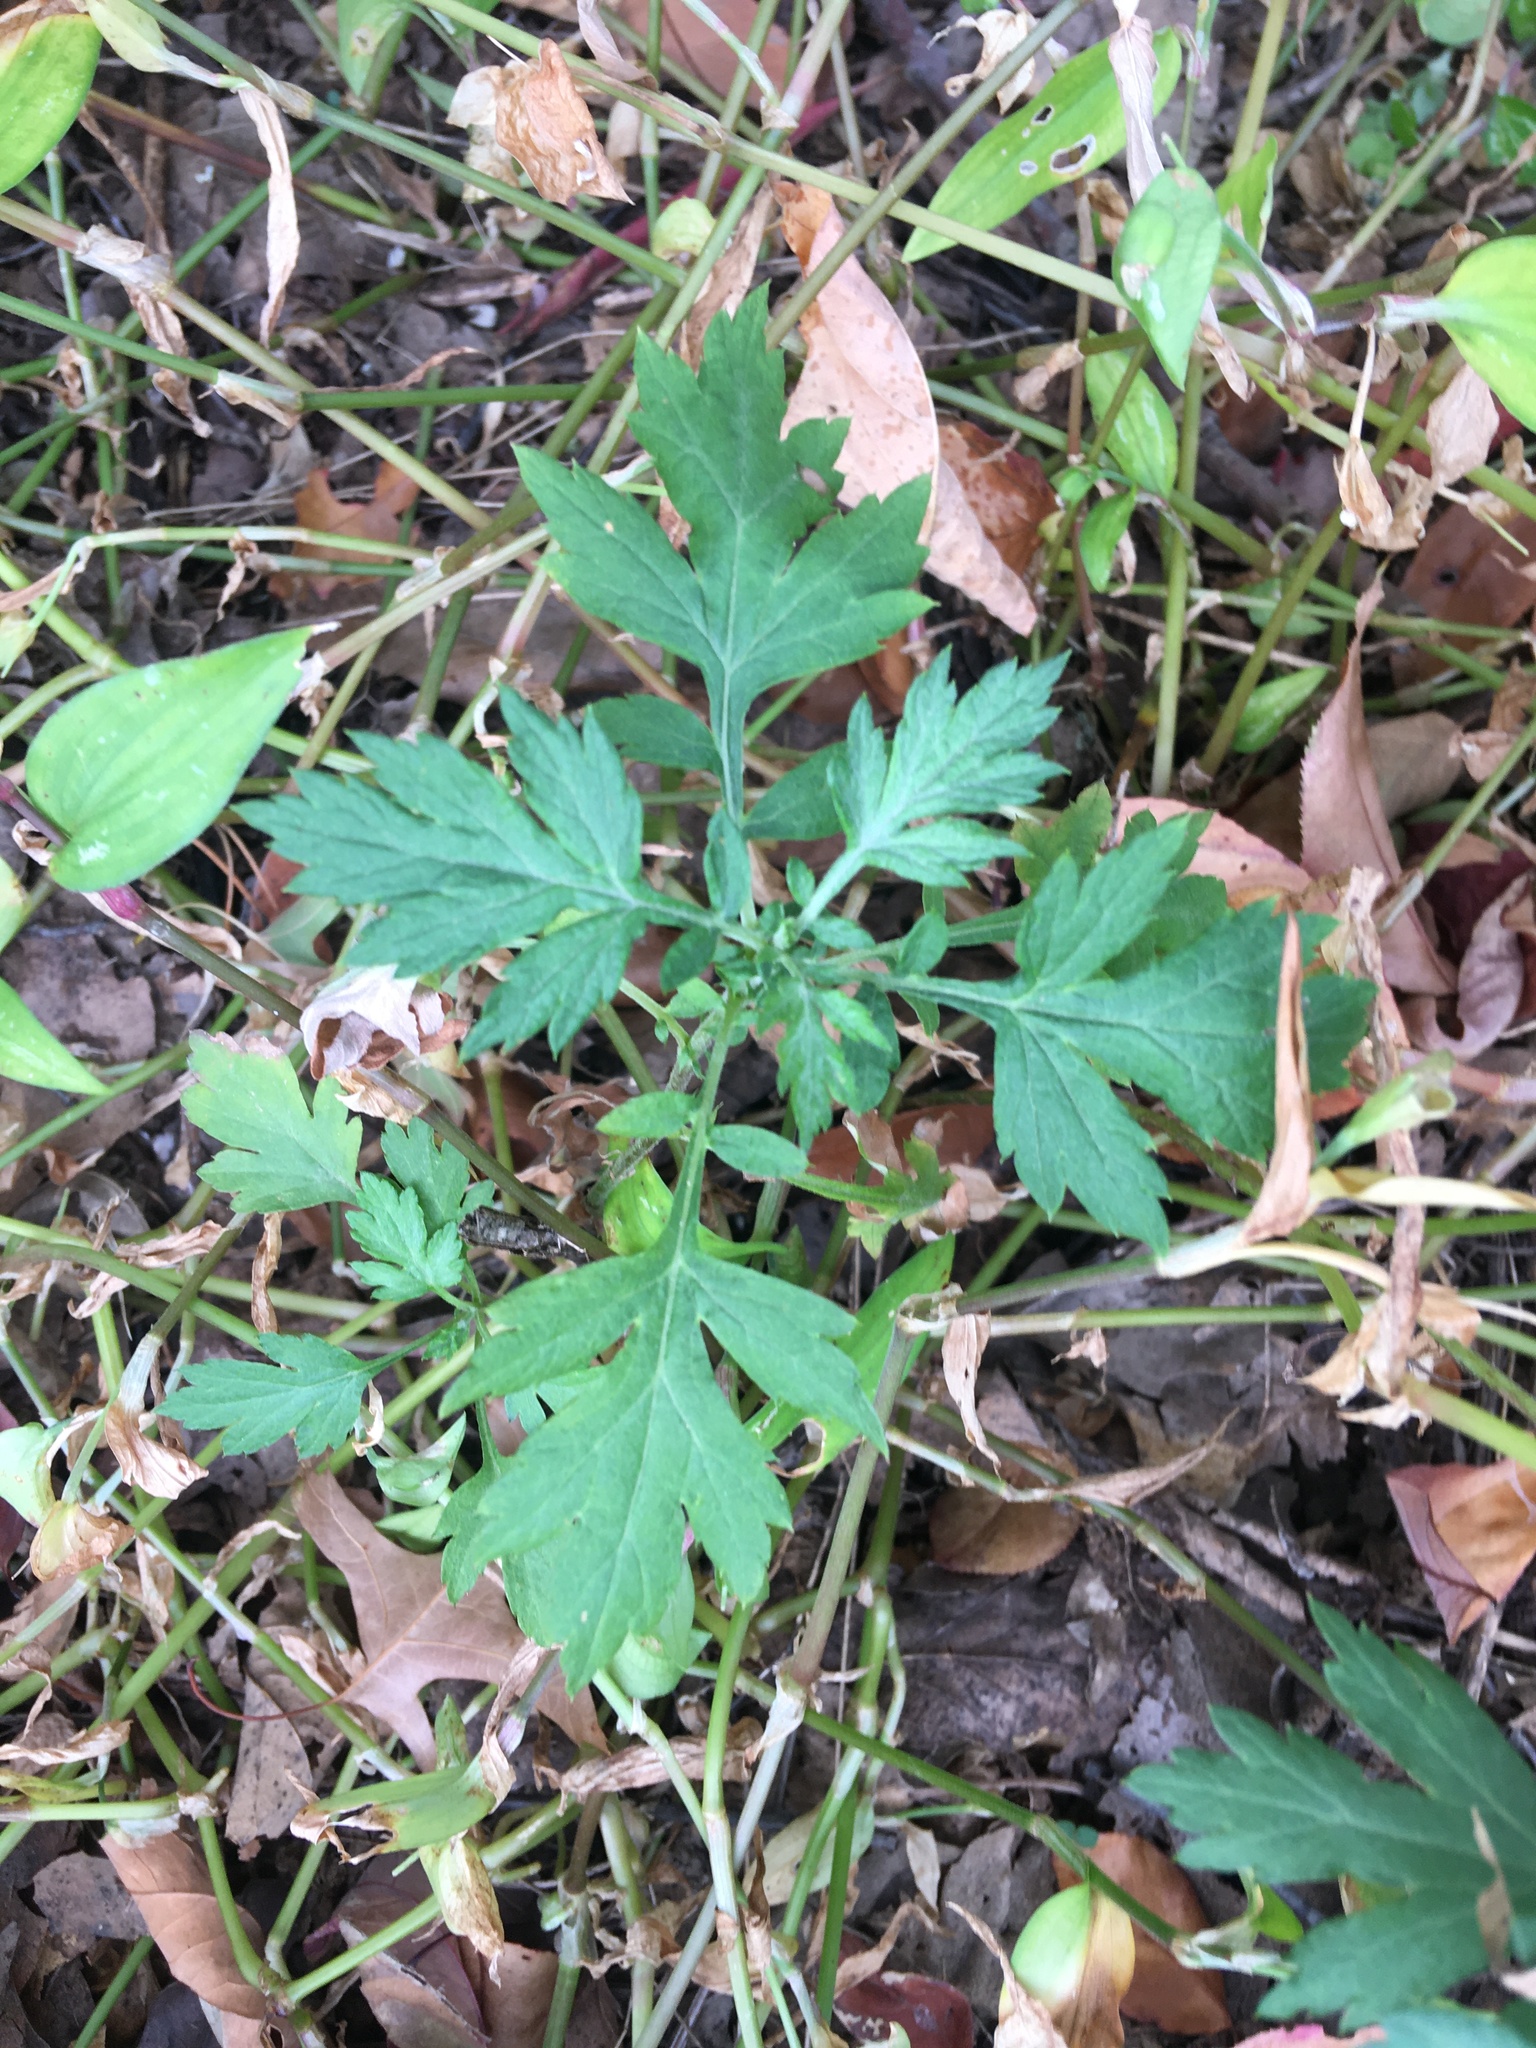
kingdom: Plantae
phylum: Tracheophyta
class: Magnoliopsida
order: Asterales
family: Asteraceae
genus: Artemisia
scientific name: Artemisia vulgaris
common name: Mugwort
